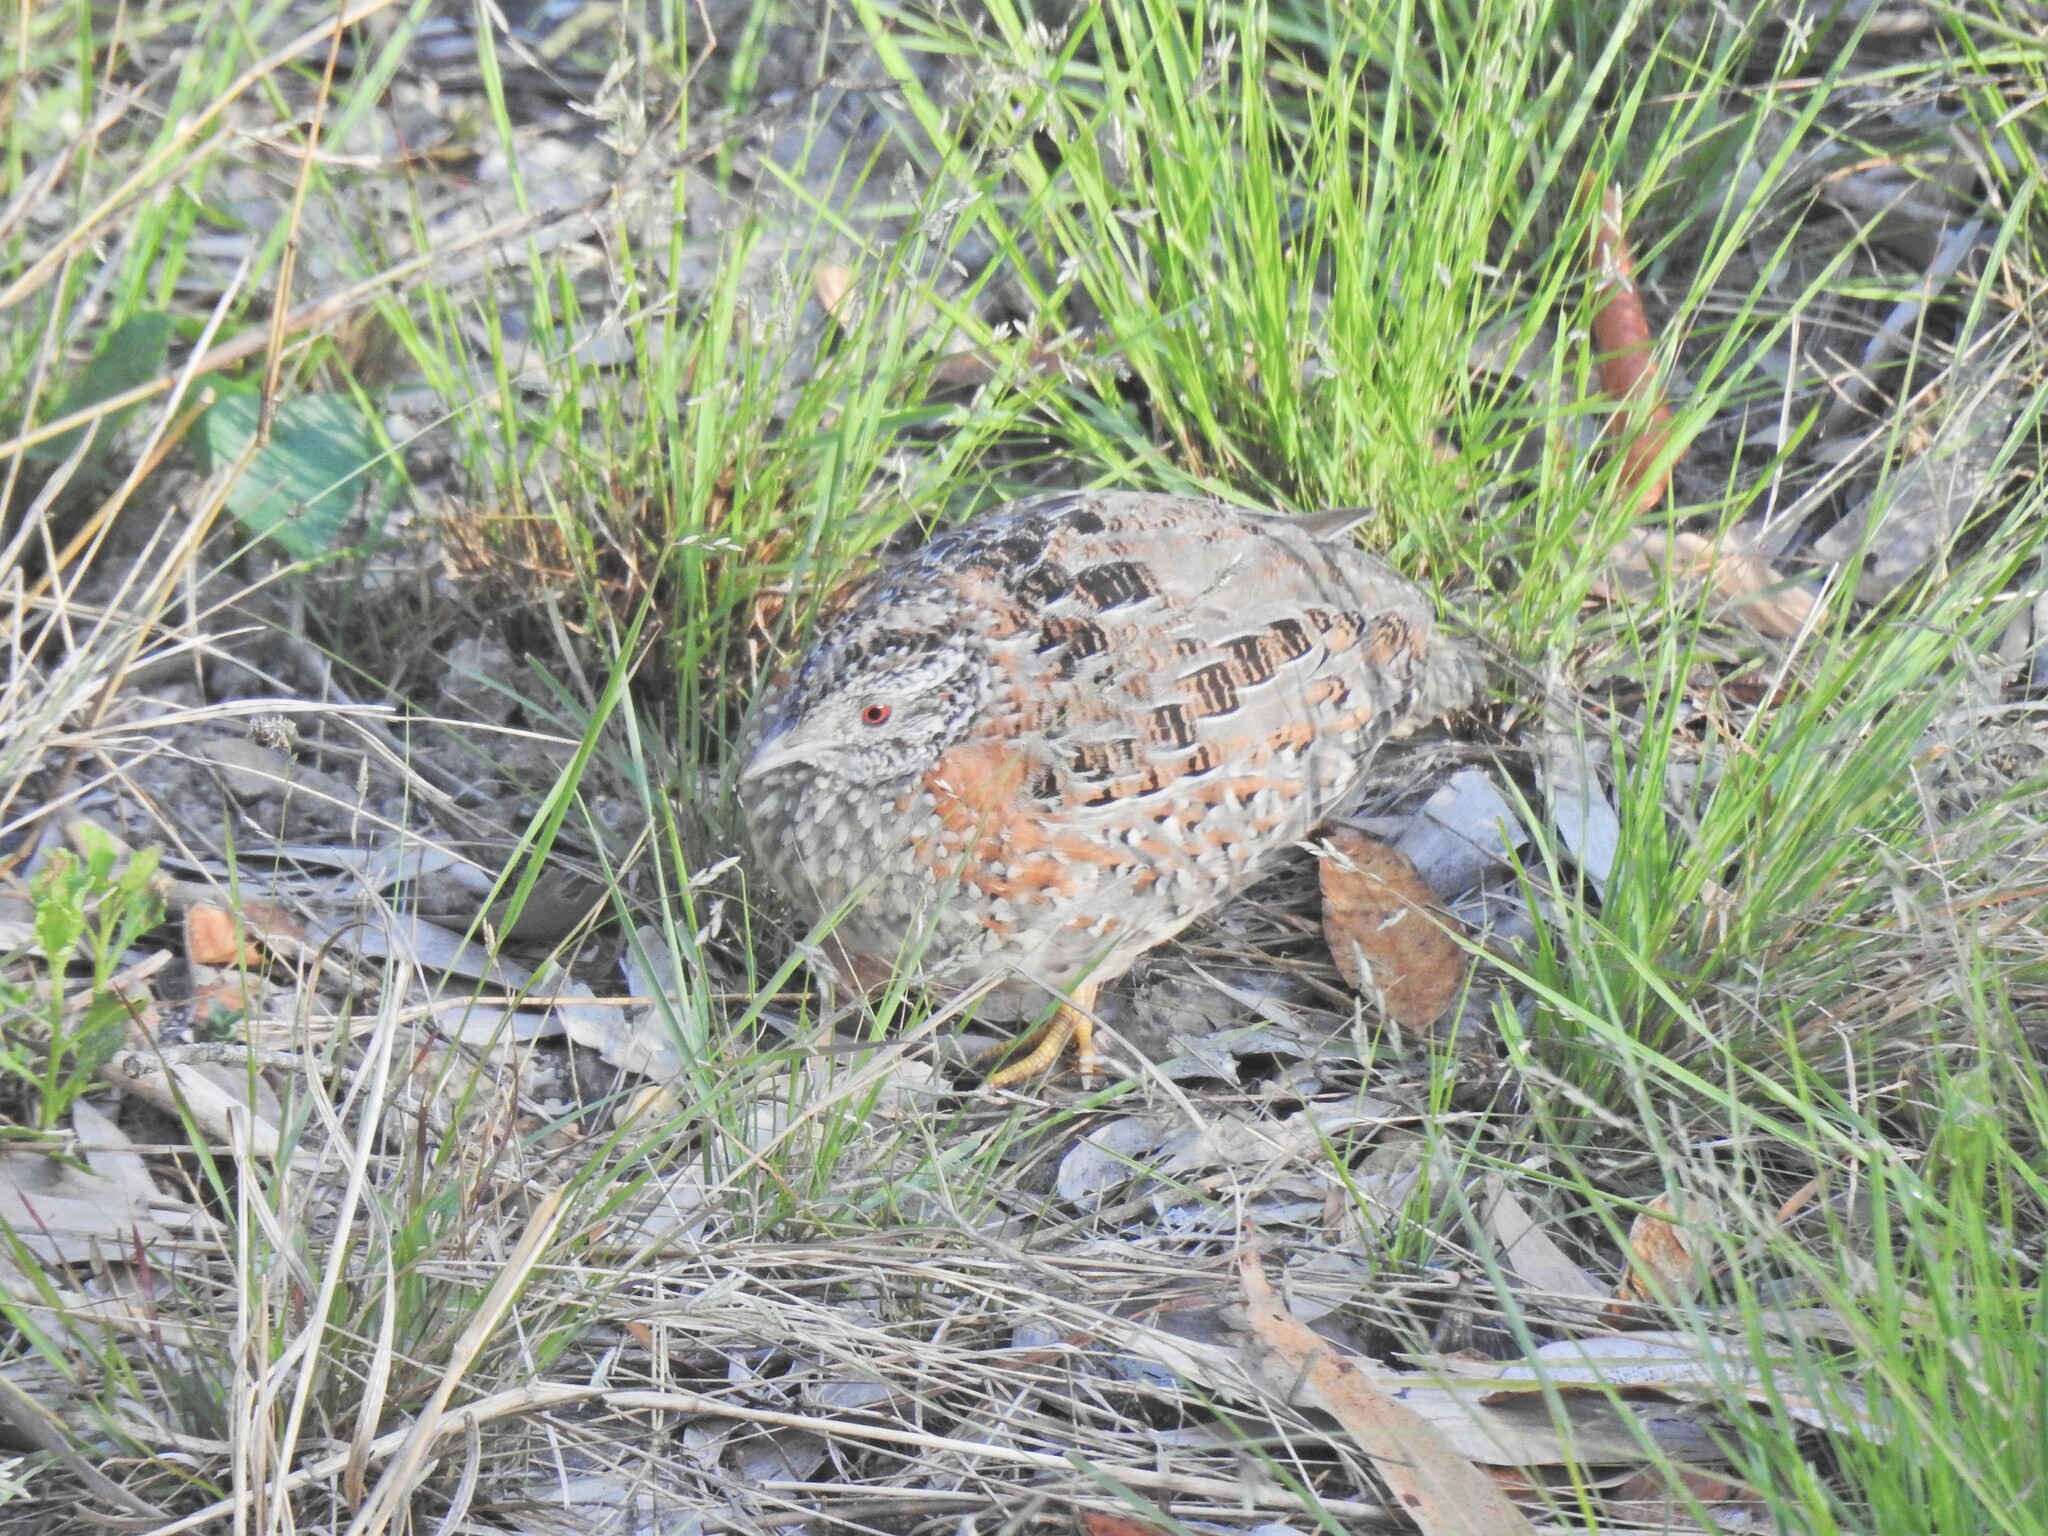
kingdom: Animalia
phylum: Chordata
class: Aves
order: Charadriiformes
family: Turnicidae
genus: Turnix
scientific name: Turnix varius
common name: Painted buttonquail
